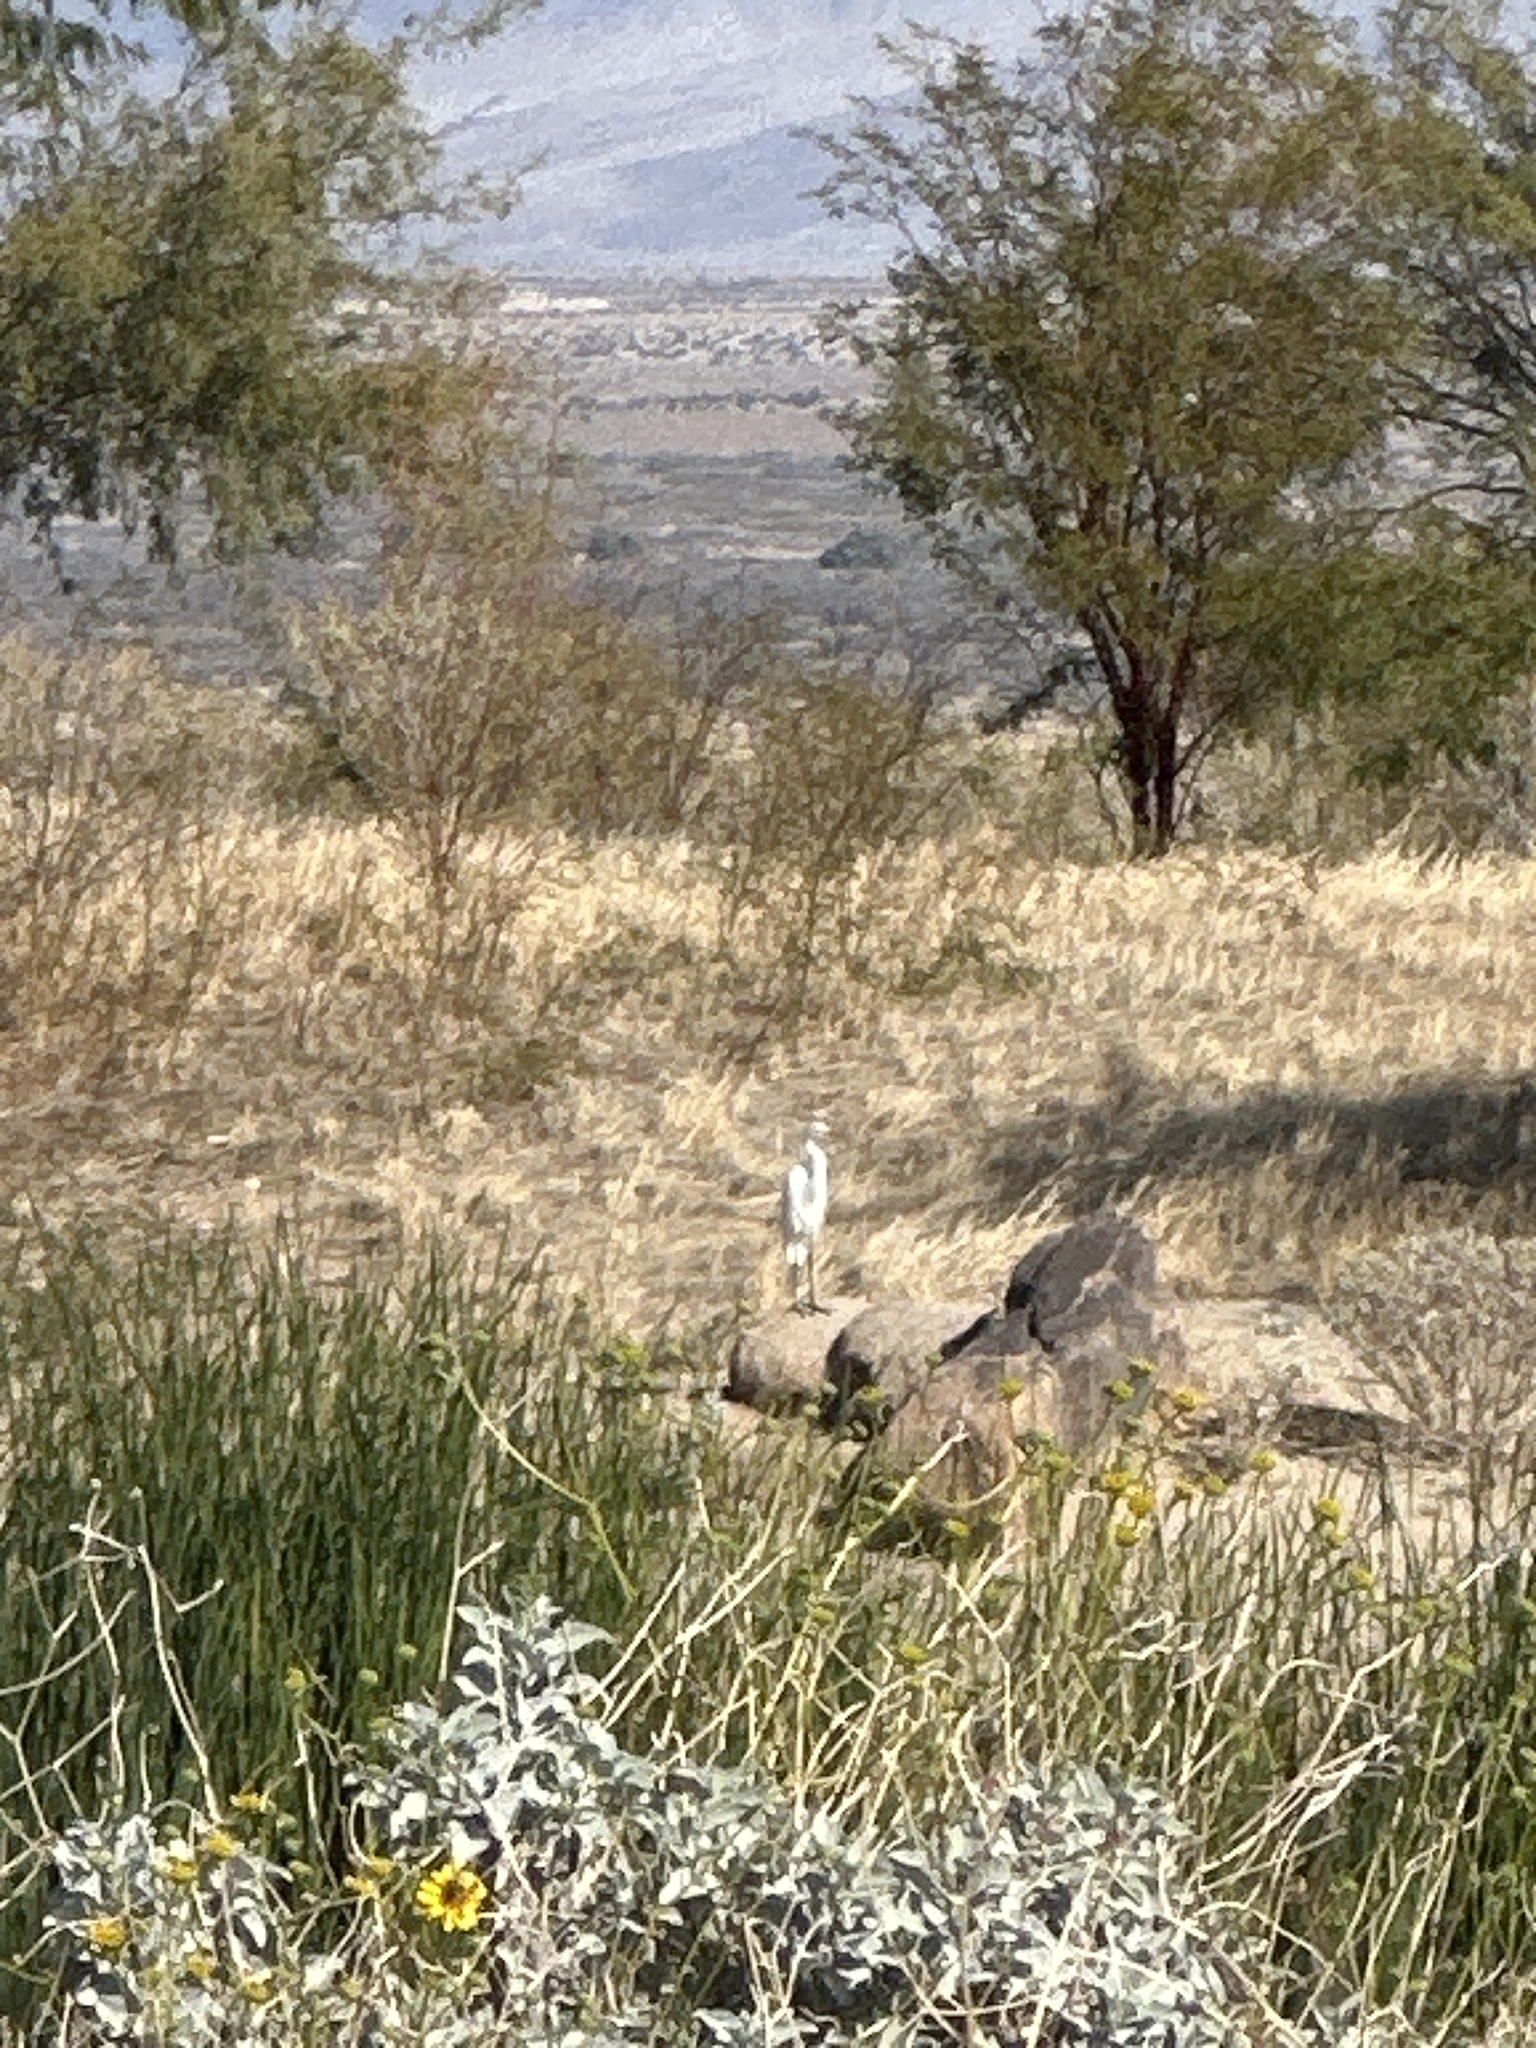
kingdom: Animalia
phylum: Chordata
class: Aves
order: Pelecaniformes
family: Ardeidae
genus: Ardea
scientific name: Ardea alba
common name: Great egret
